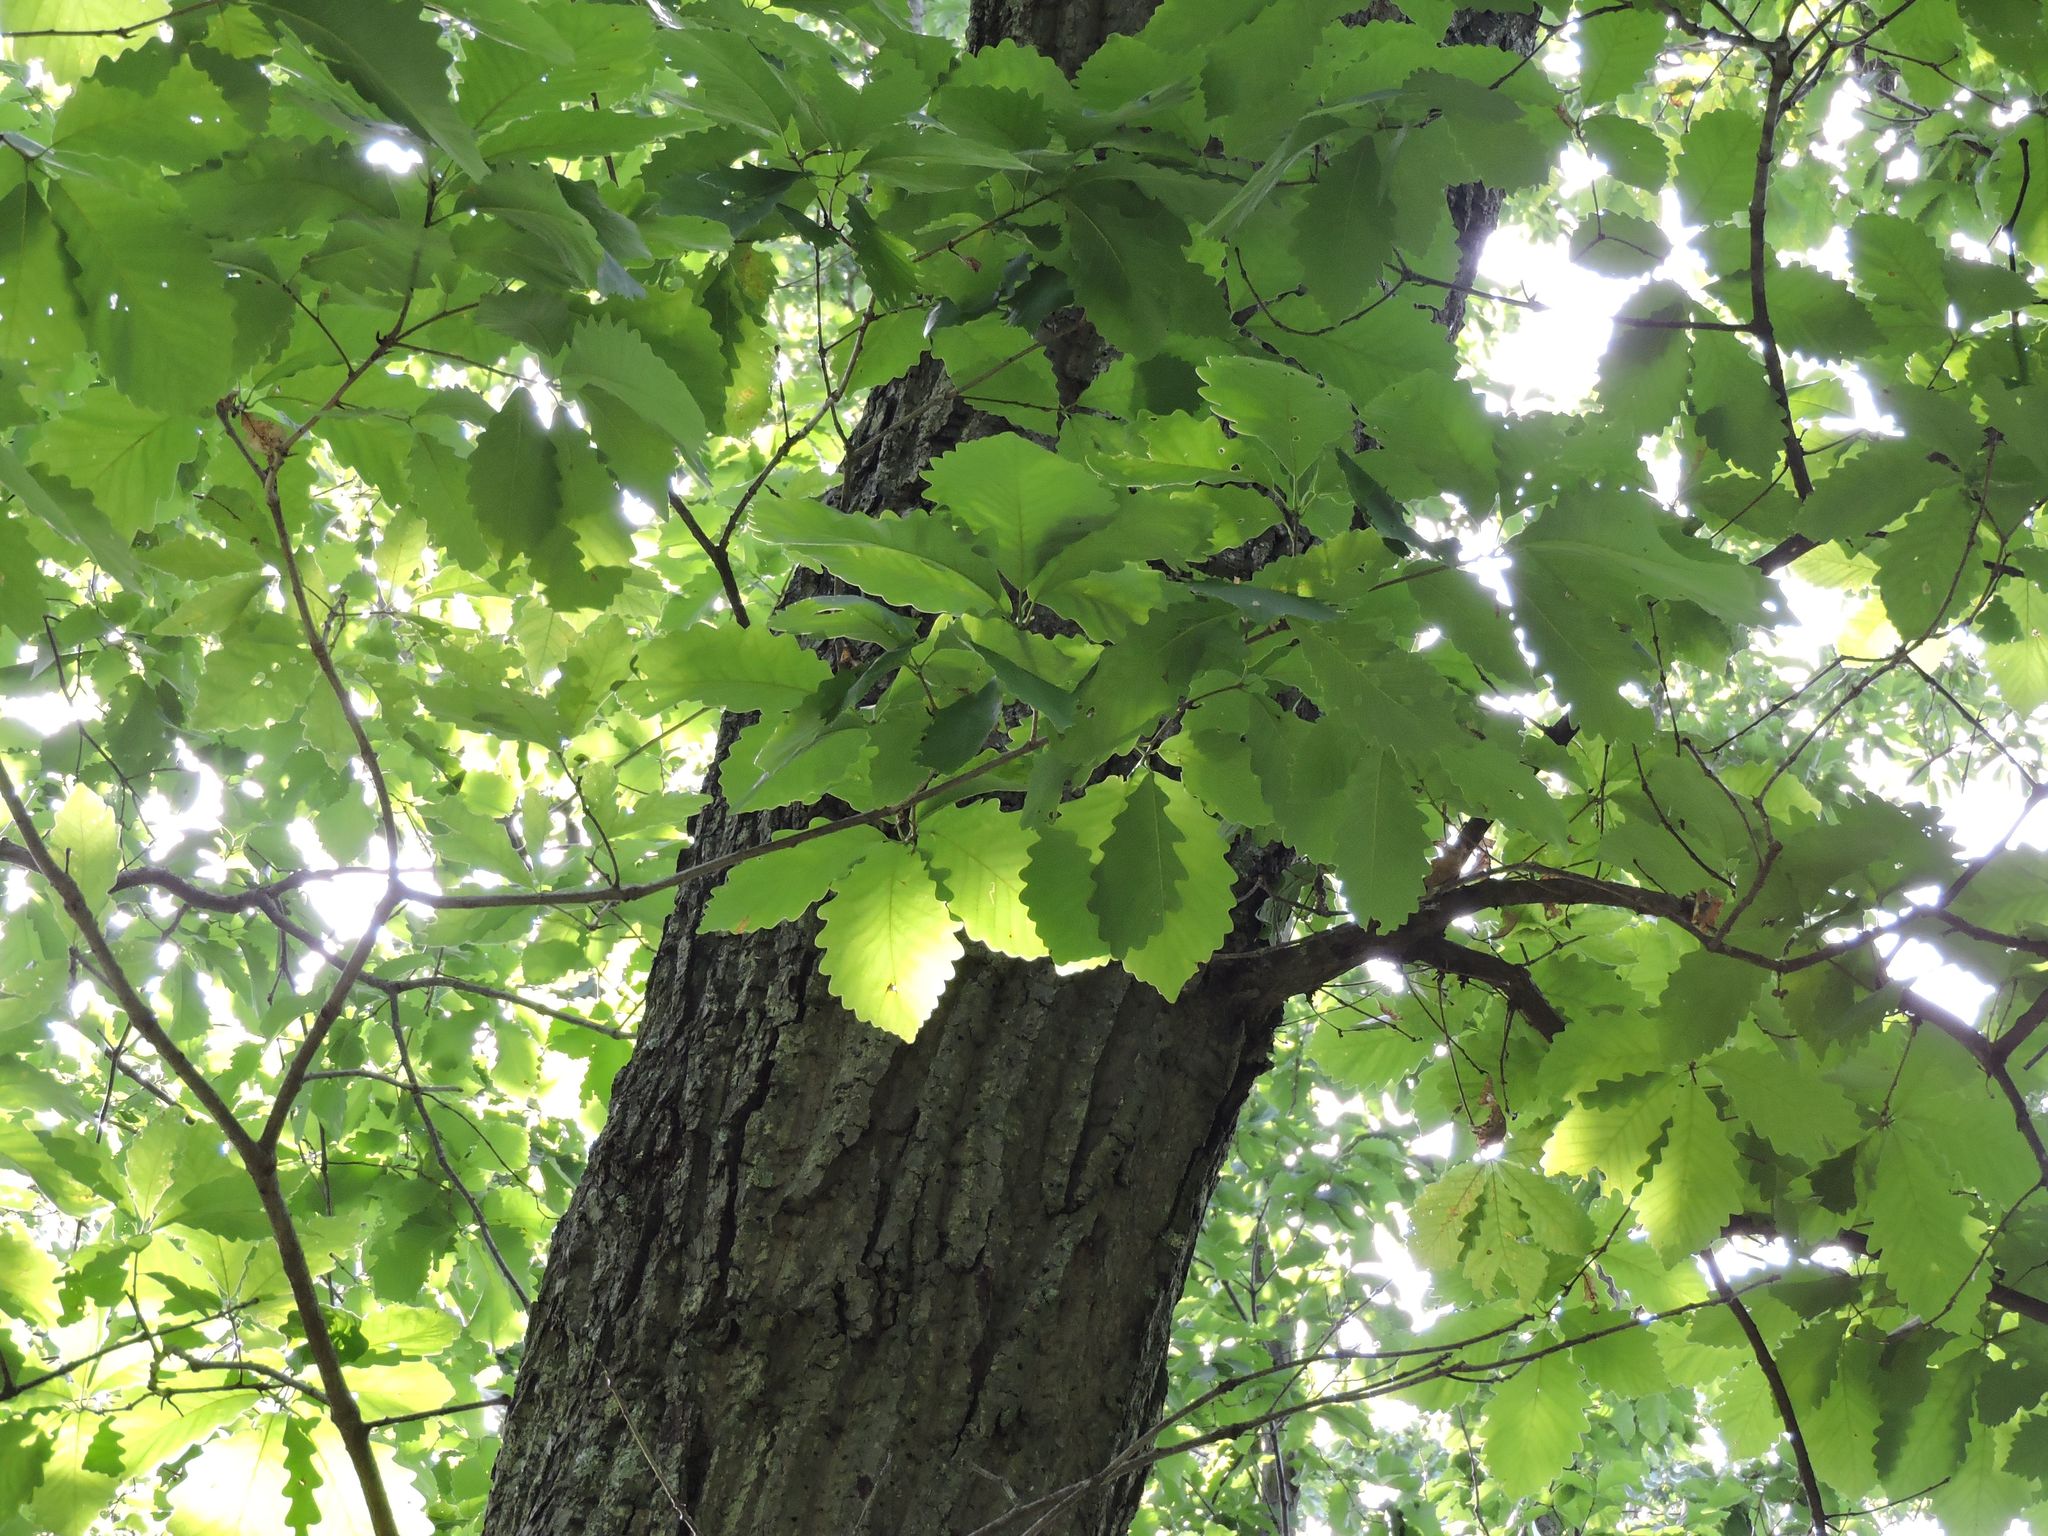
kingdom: Plantae
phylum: Tracheophyta
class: Magnoliopsida
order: Fagales
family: Fagaceae
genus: Quercus
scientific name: Quercus montana
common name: Chestnut oak
